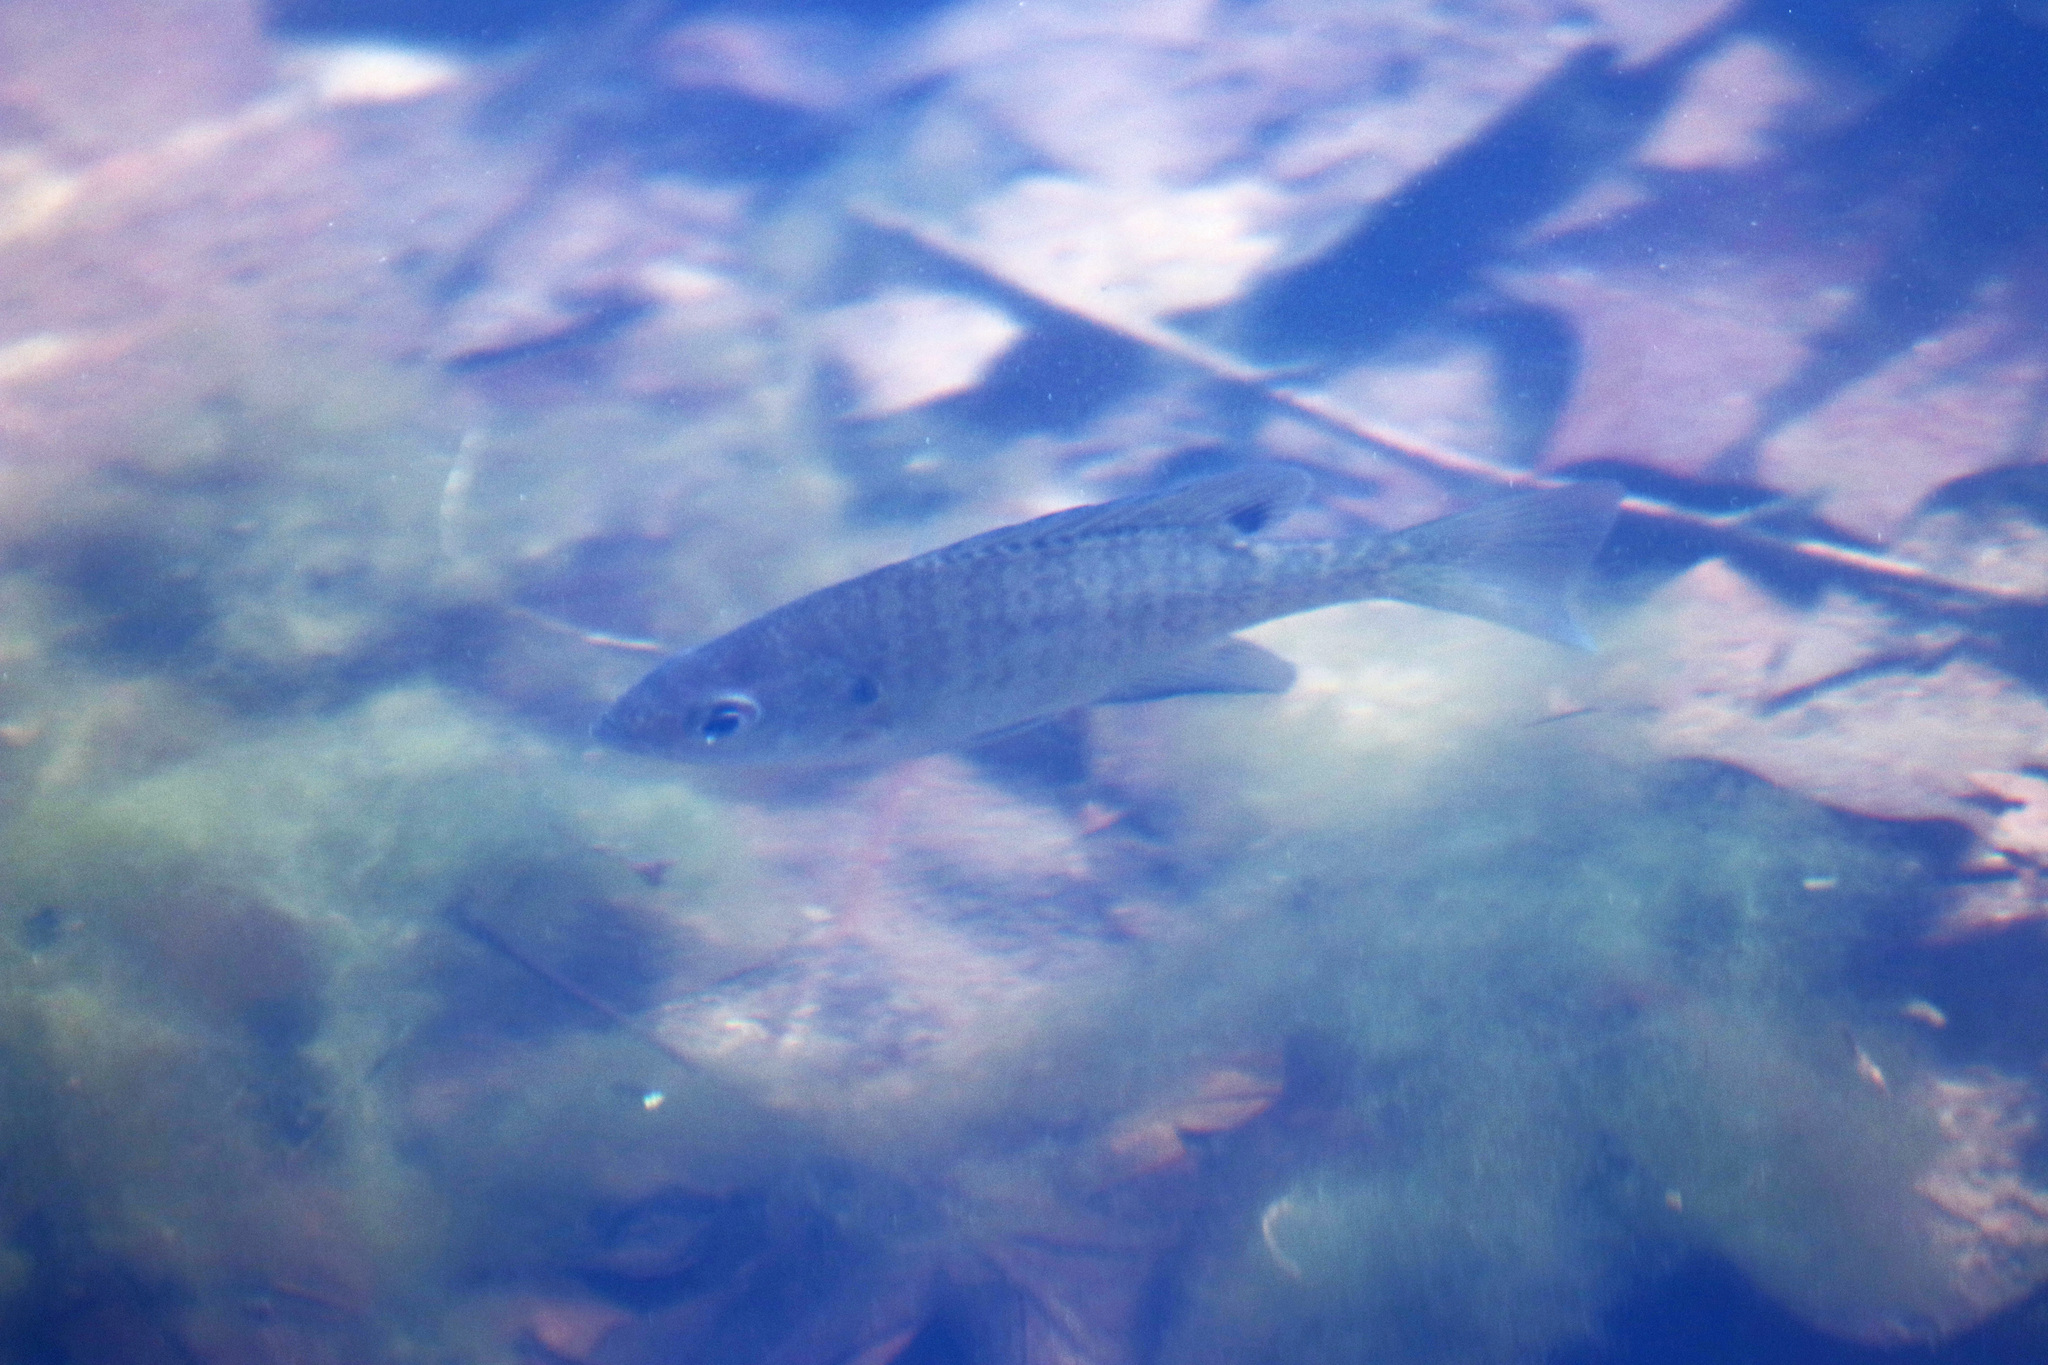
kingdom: Animalia
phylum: Chordata
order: Perciformes
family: Centrarchidae
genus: Lepomis
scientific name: Lepomis macrochirus
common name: Bluegill
